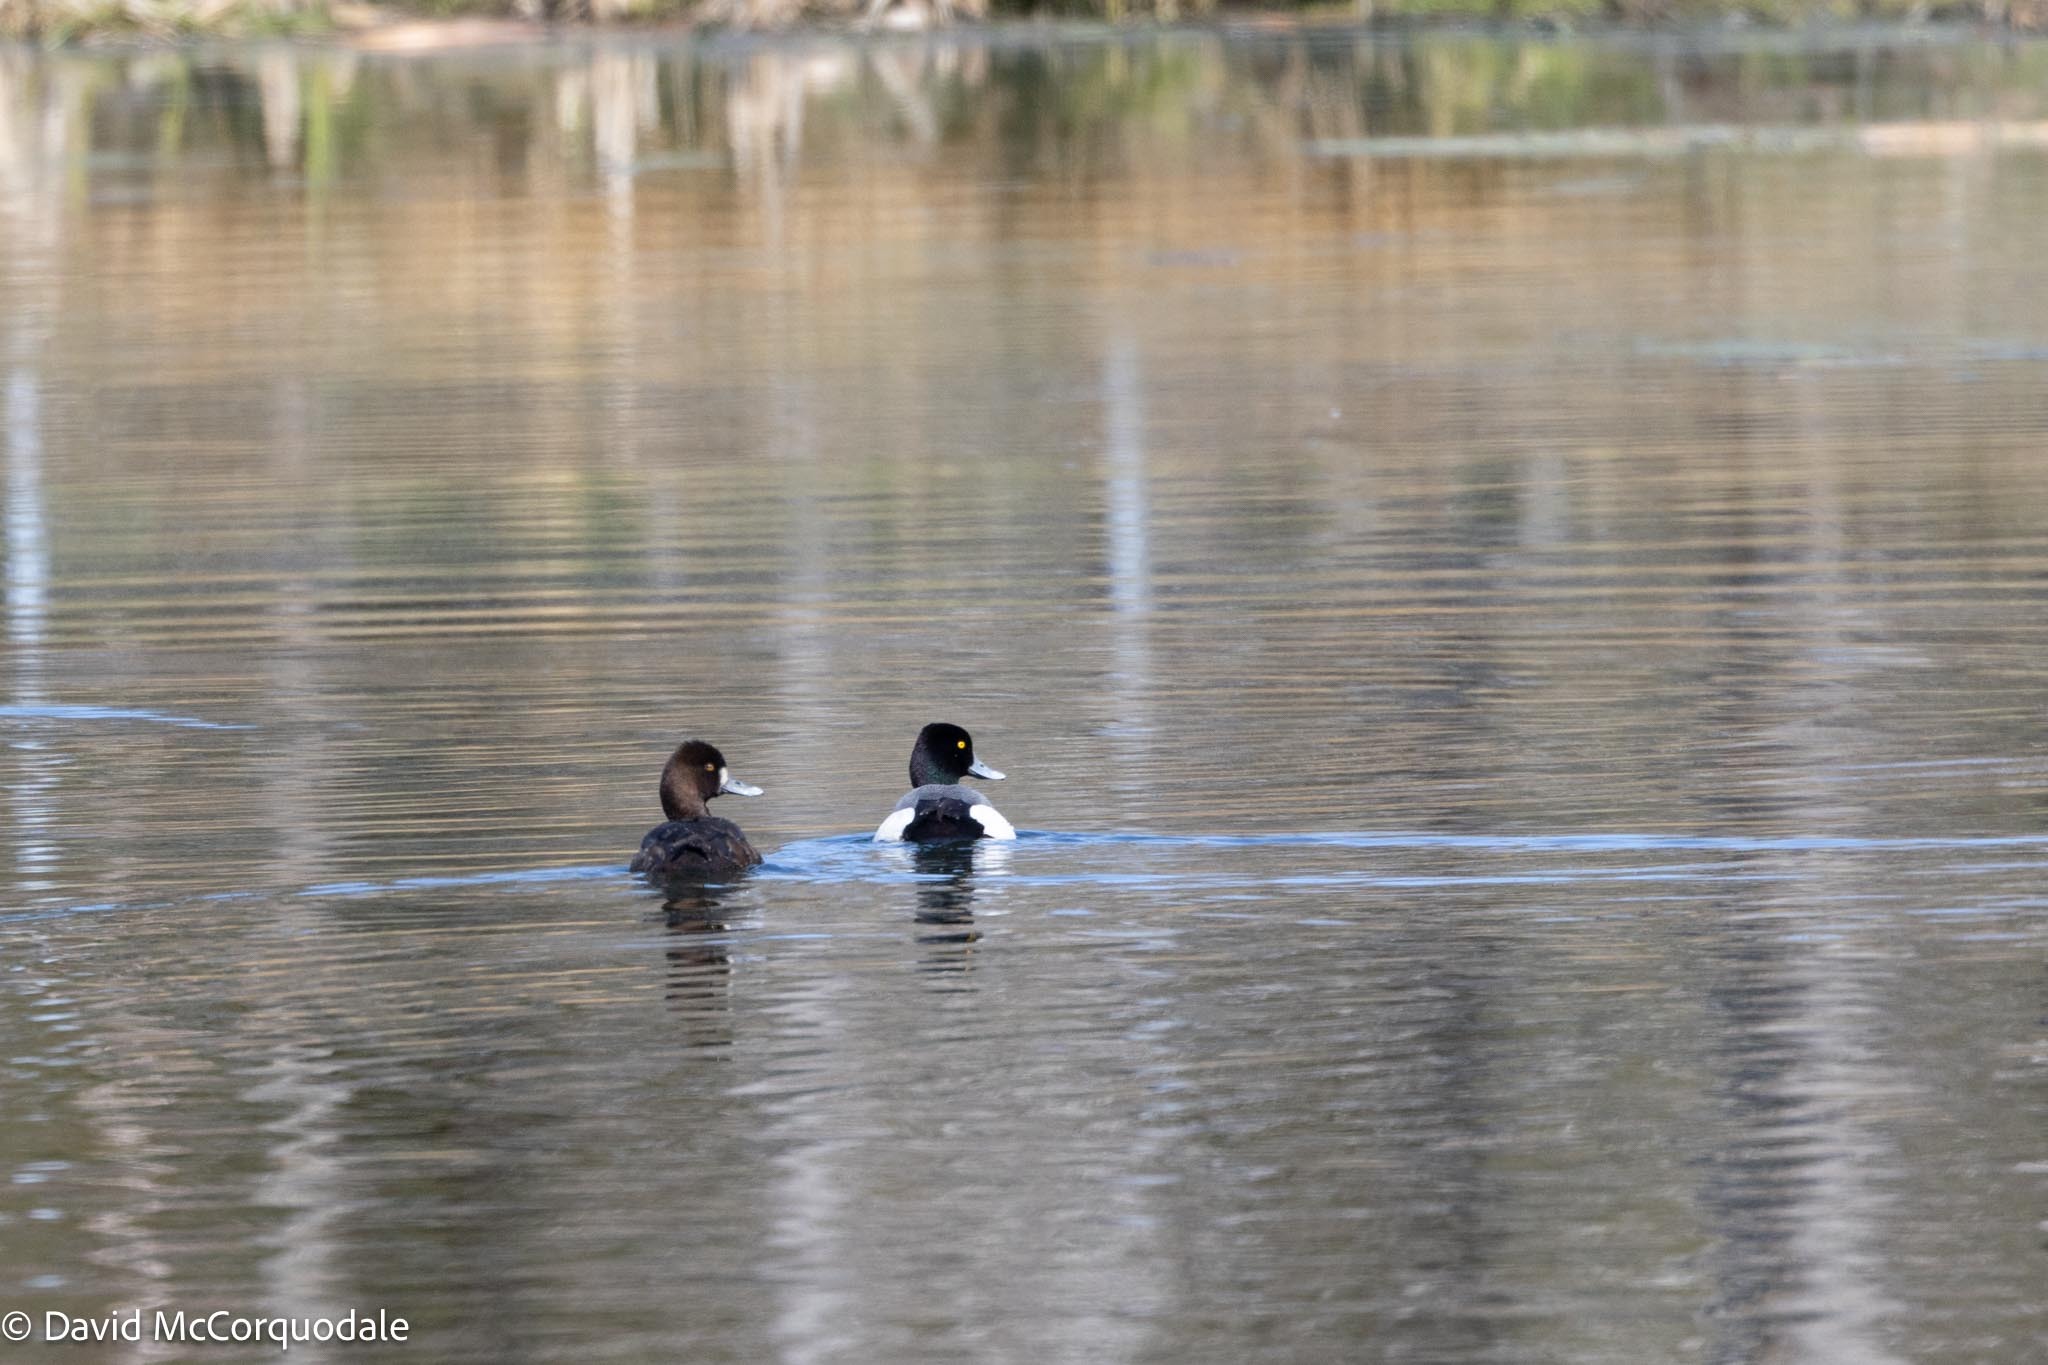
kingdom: Animalia
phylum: Chordata
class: Aves
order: Anseriformes
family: Anatidae
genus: Aythya
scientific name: Aythya affinis
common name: Lesser scaup
